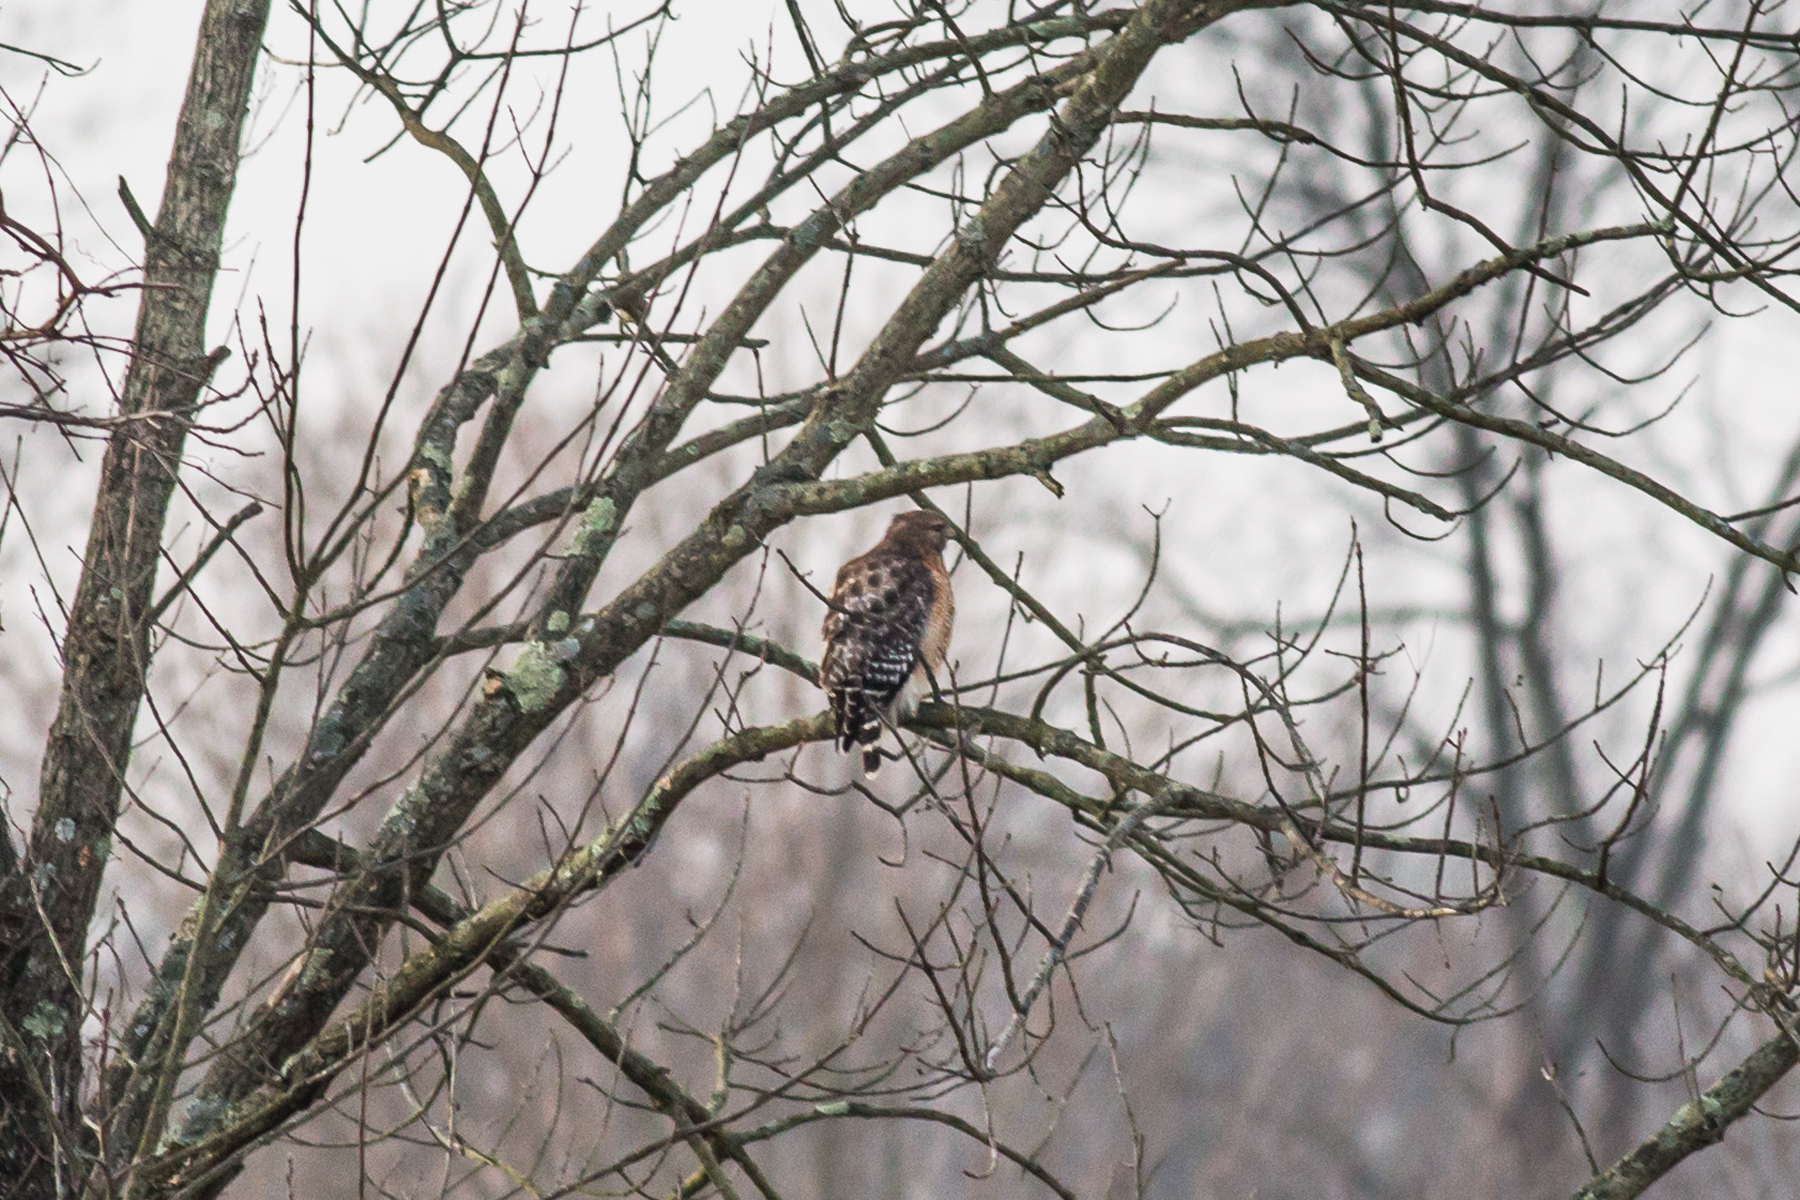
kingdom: Animalia
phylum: Chordata
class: Aves
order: Accipitriformes
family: Accipitridae
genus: Buteo
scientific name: Buteo lineatus
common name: Red-shouldered hawk
